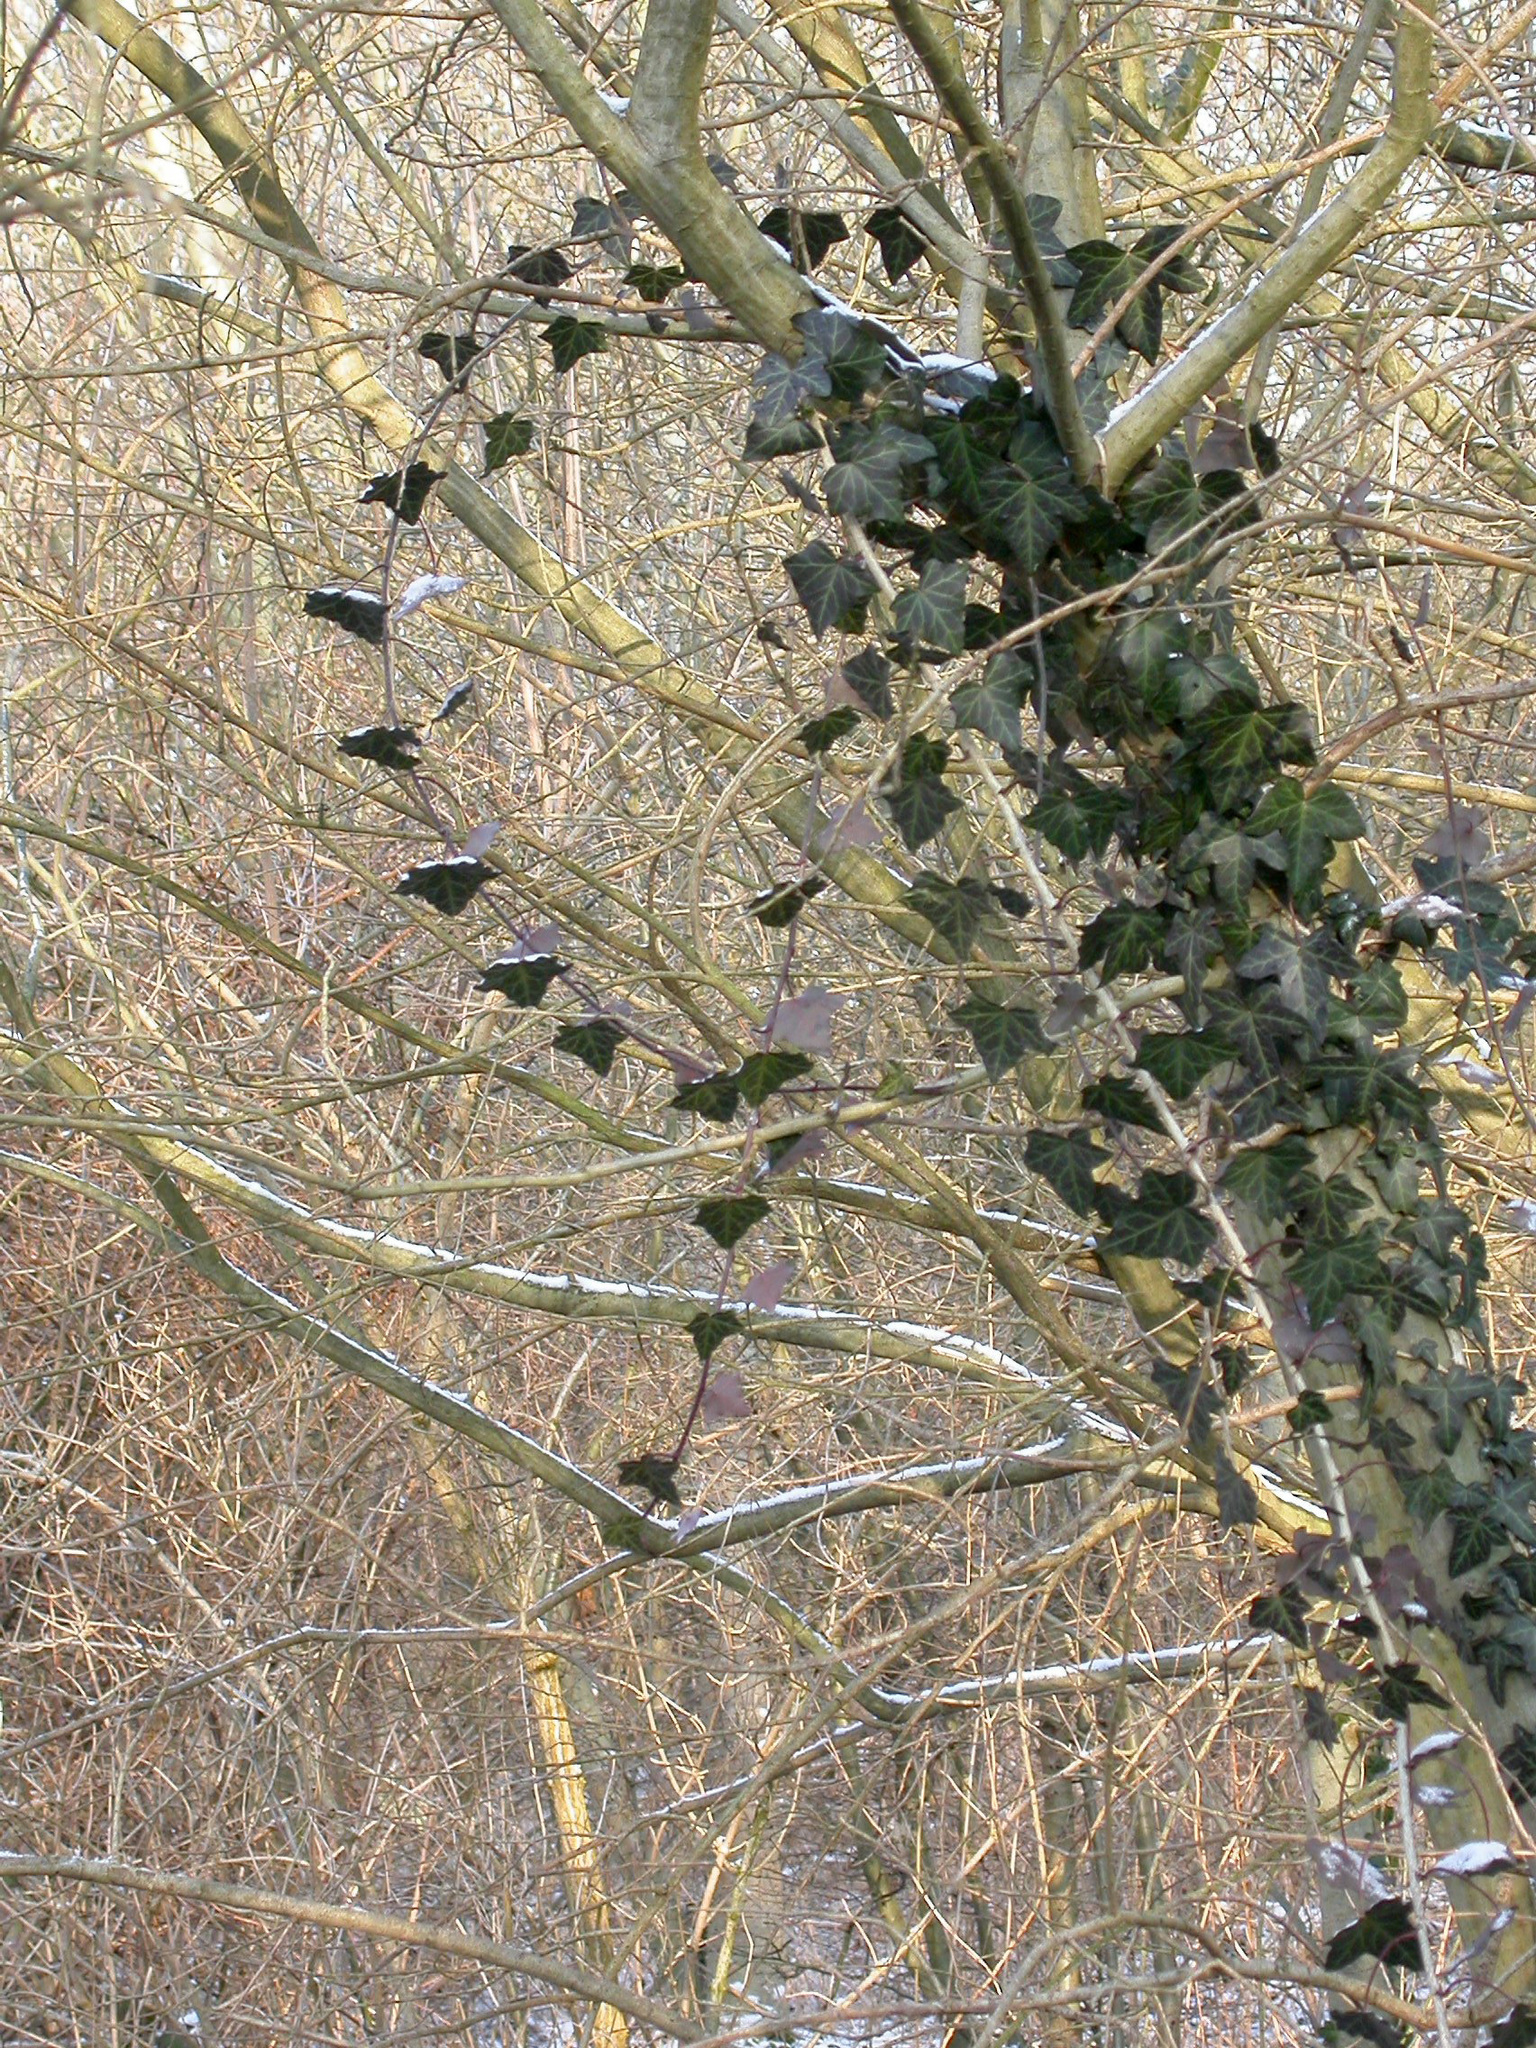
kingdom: Plantae
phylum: Tracheophyta
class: Magnoliopsida
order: Apiales
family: Araliaceae
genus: Hedera
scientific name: Hedera helix
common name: Ivy
